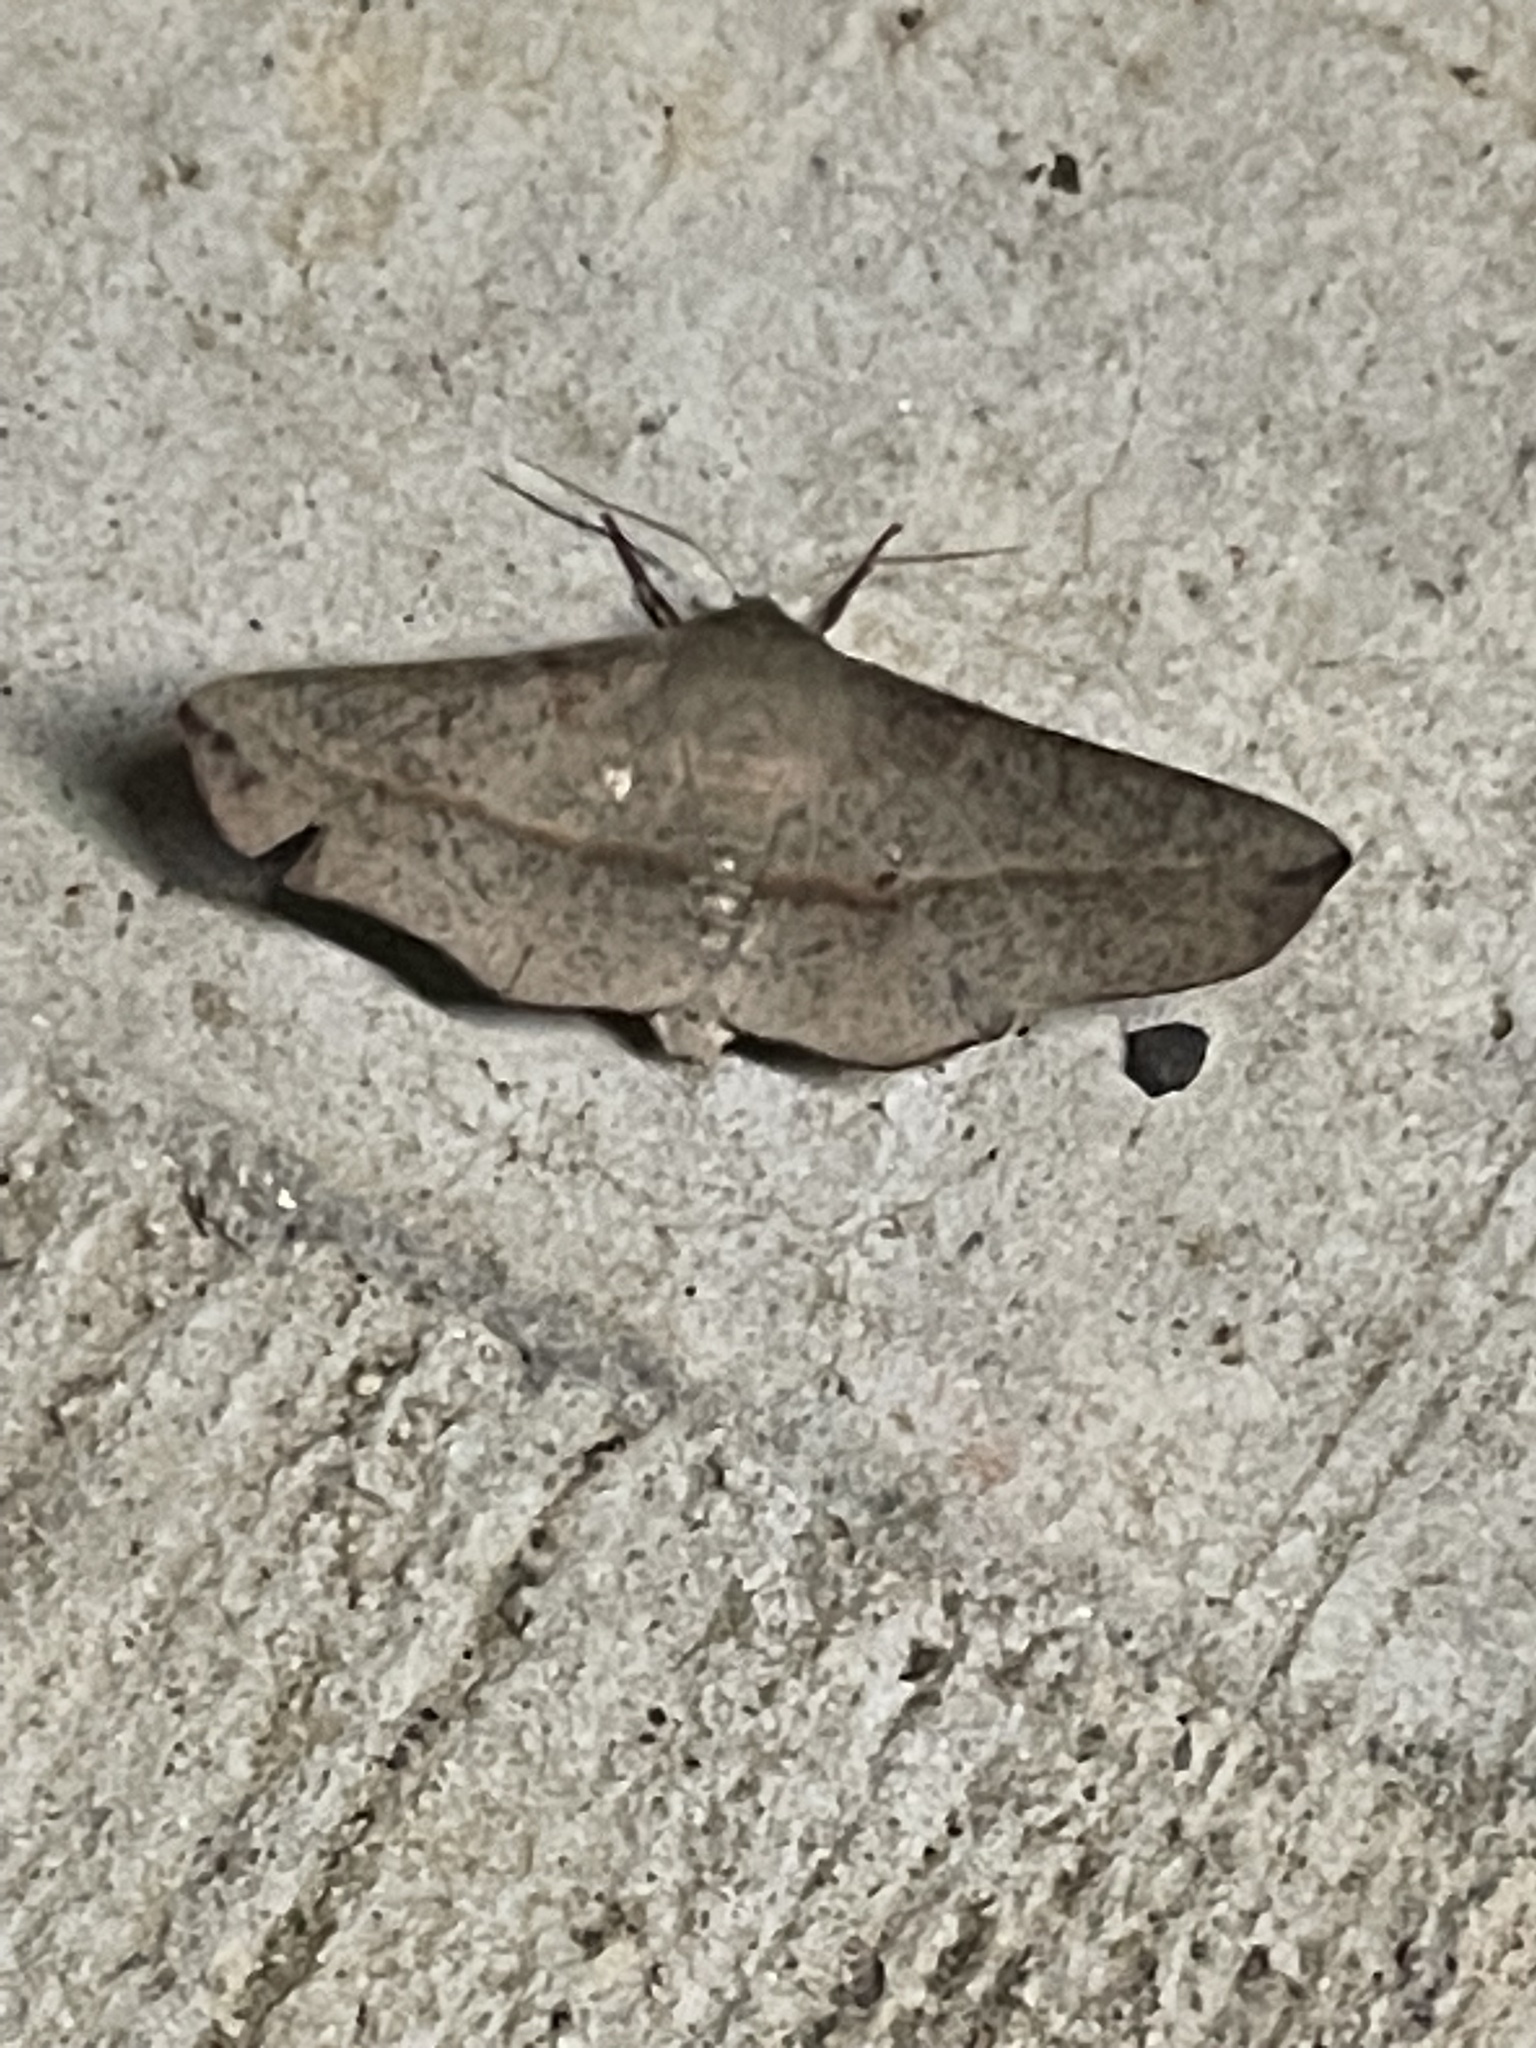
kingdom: Animalia
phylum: Arthropoda
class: Insecta
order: Lepidoptera
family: Geometridae
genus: Antictenia
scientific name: Antictenia punctunculus
